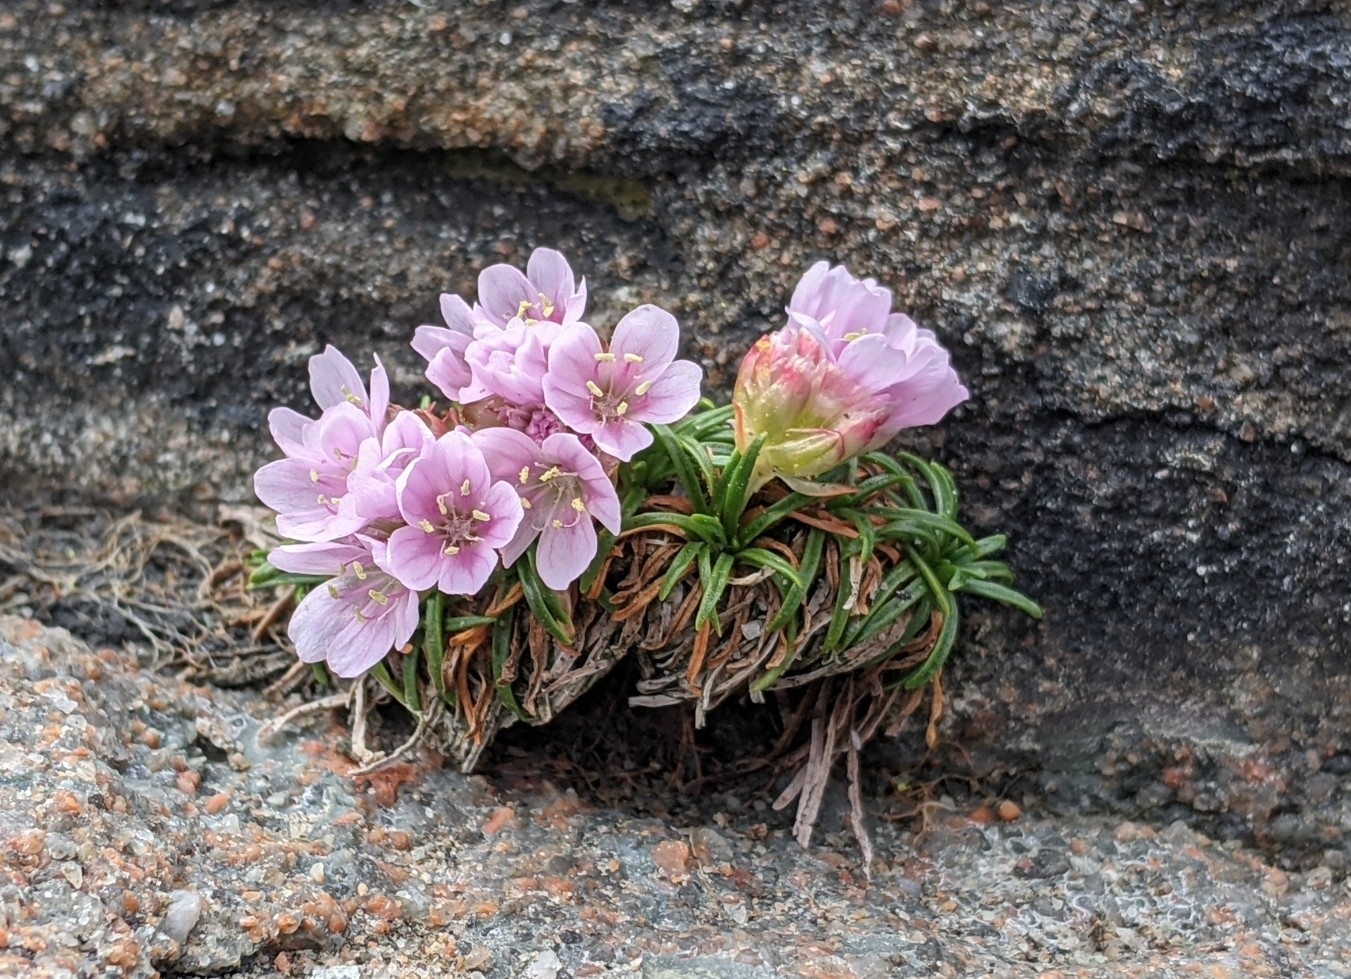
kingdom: Plantae
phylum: Tracheophyta
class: Magnoliopsida
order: Caryophyllales
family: Plumbaginaceae
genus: Armeria
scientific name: Armeria maritima
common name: Thrift
